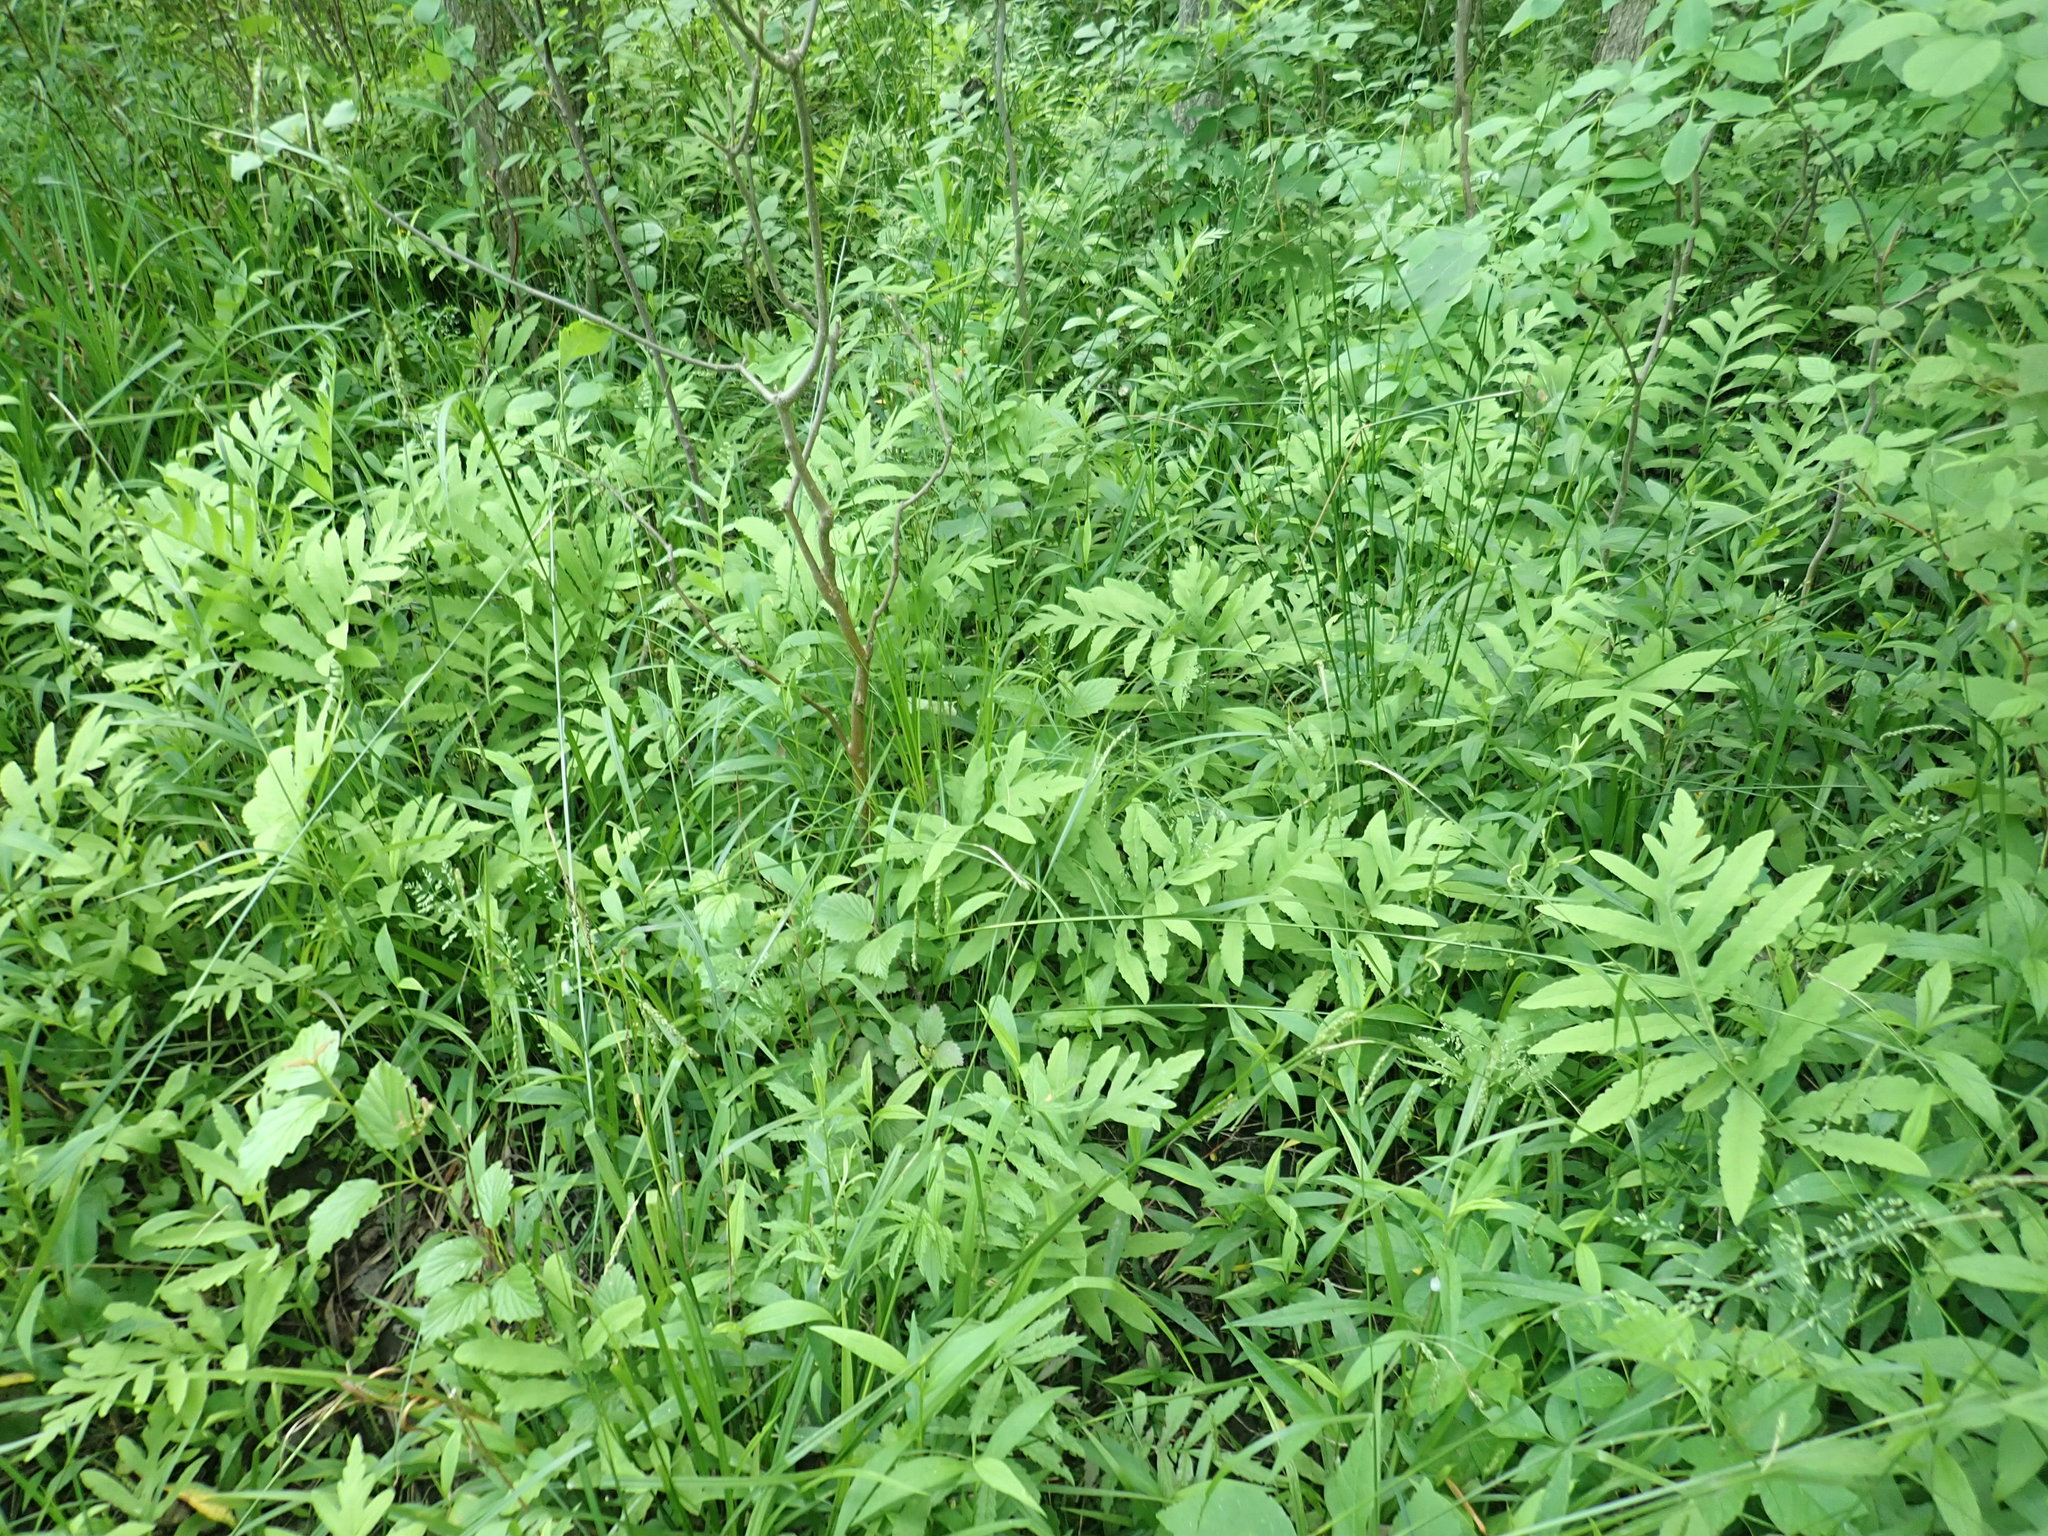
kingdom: Plantae
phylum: Tracheophyta
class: Polypodiopsida
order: Polypodiales
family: Onocleaceae
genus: Onoclea
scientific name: Onoclea sensibilis
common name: Sensitive fern
